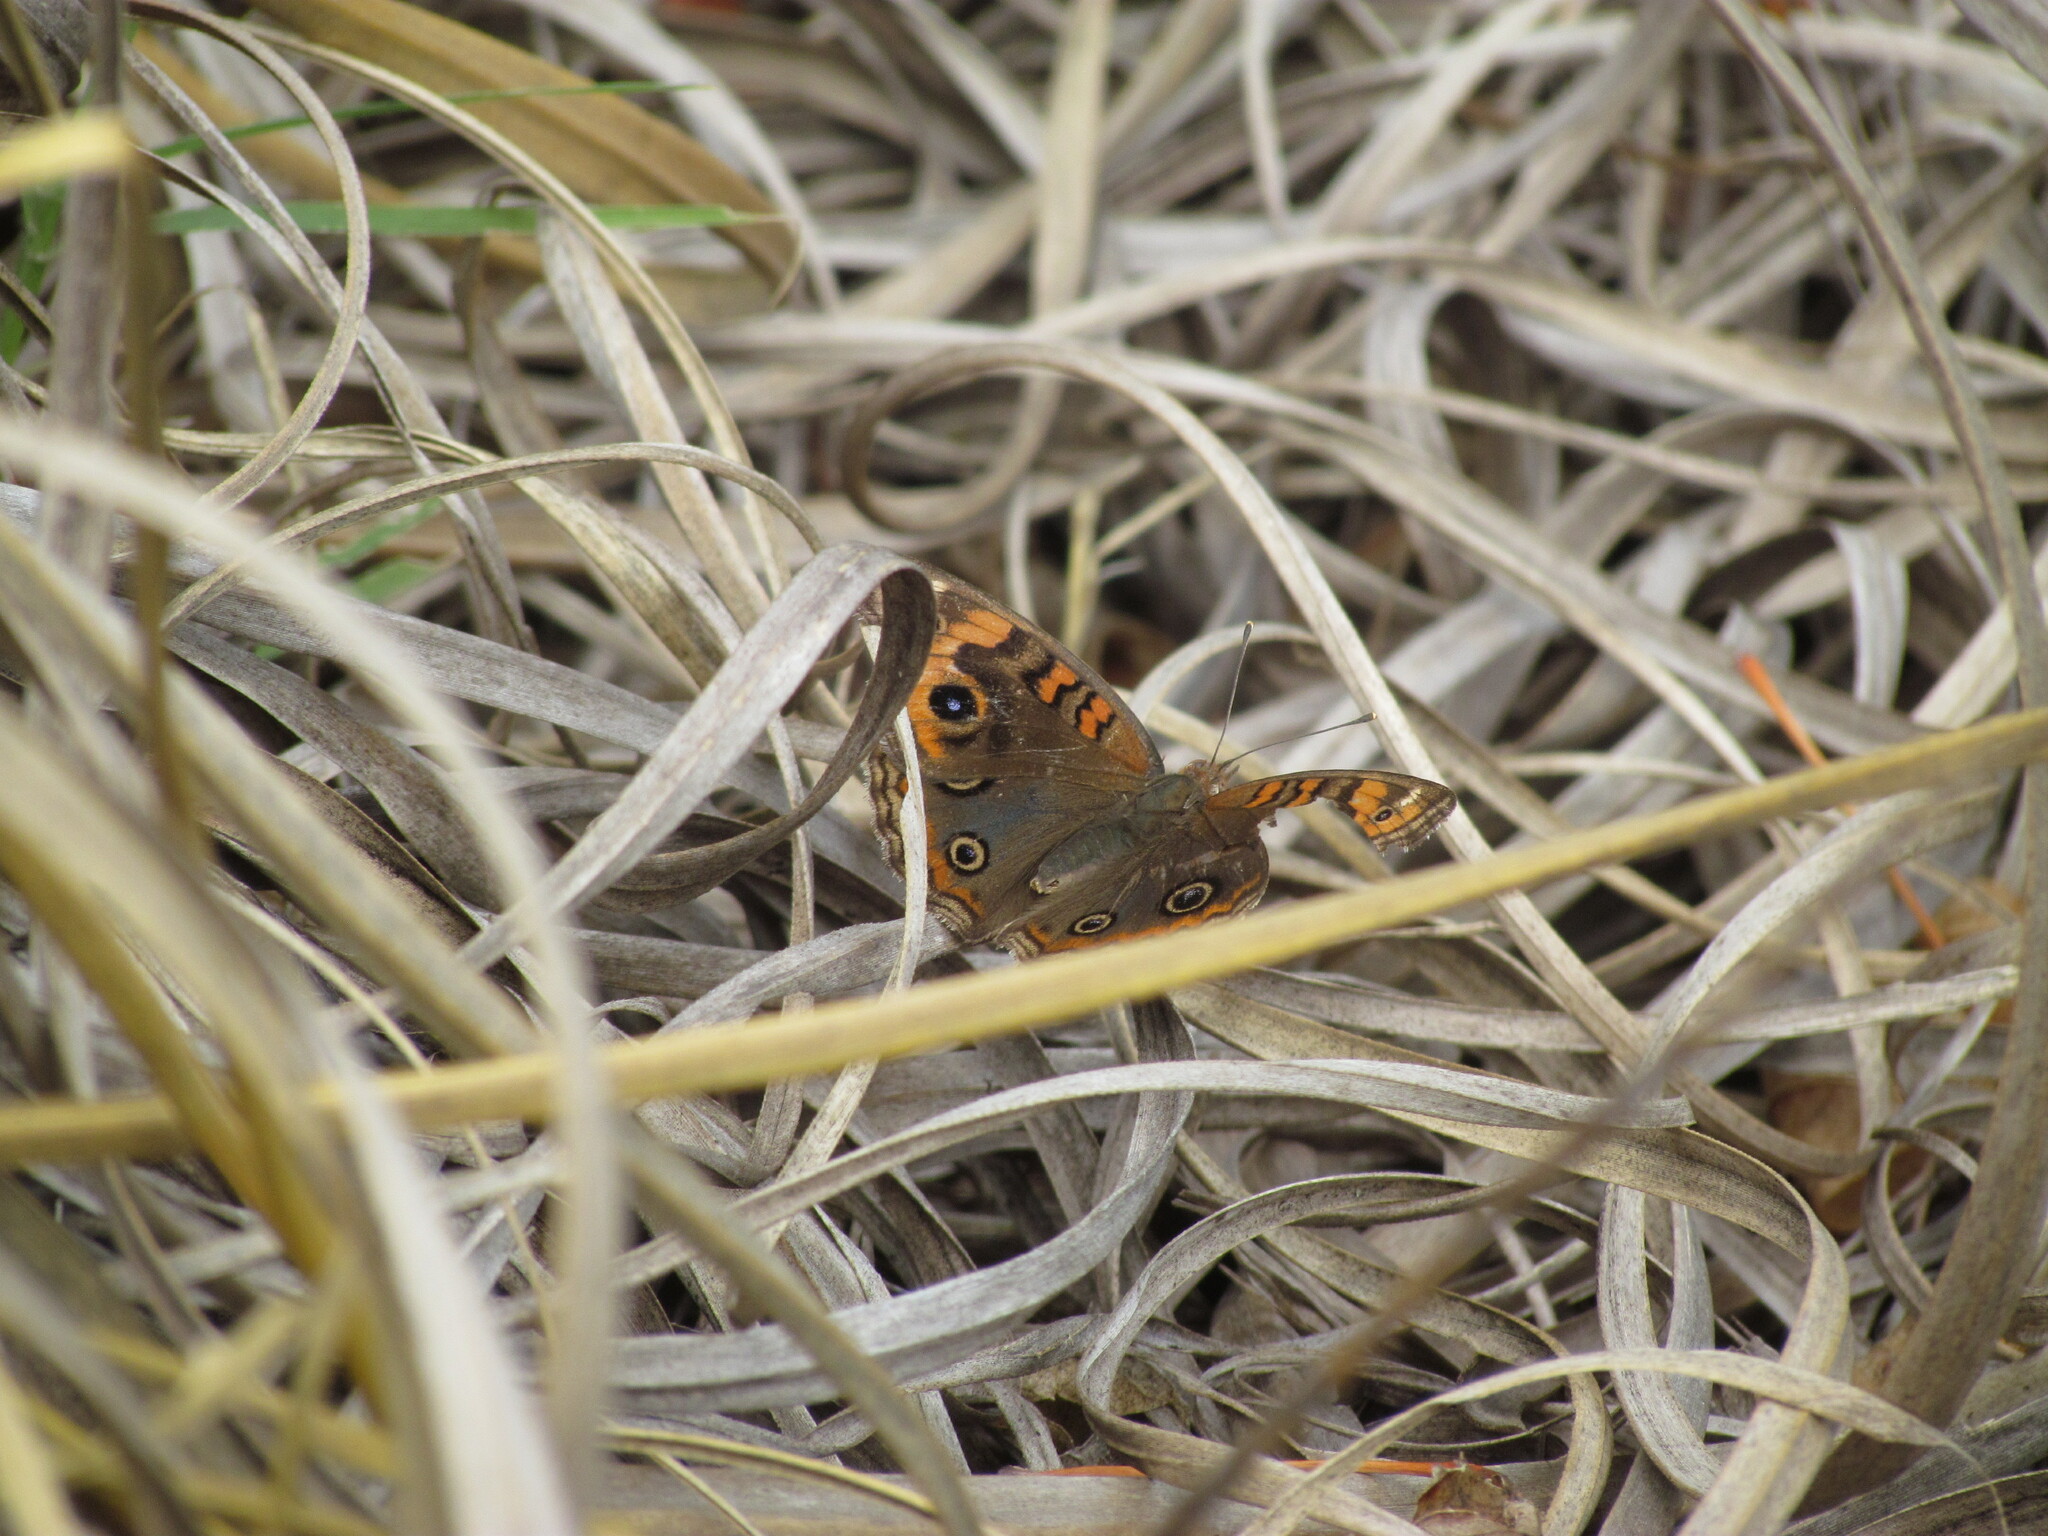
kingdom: Animalia
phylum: Arthropoda
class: Insecta
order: Lepidoptera
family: Nymphalidae
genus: Junonia
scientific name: Junonia lavinia
